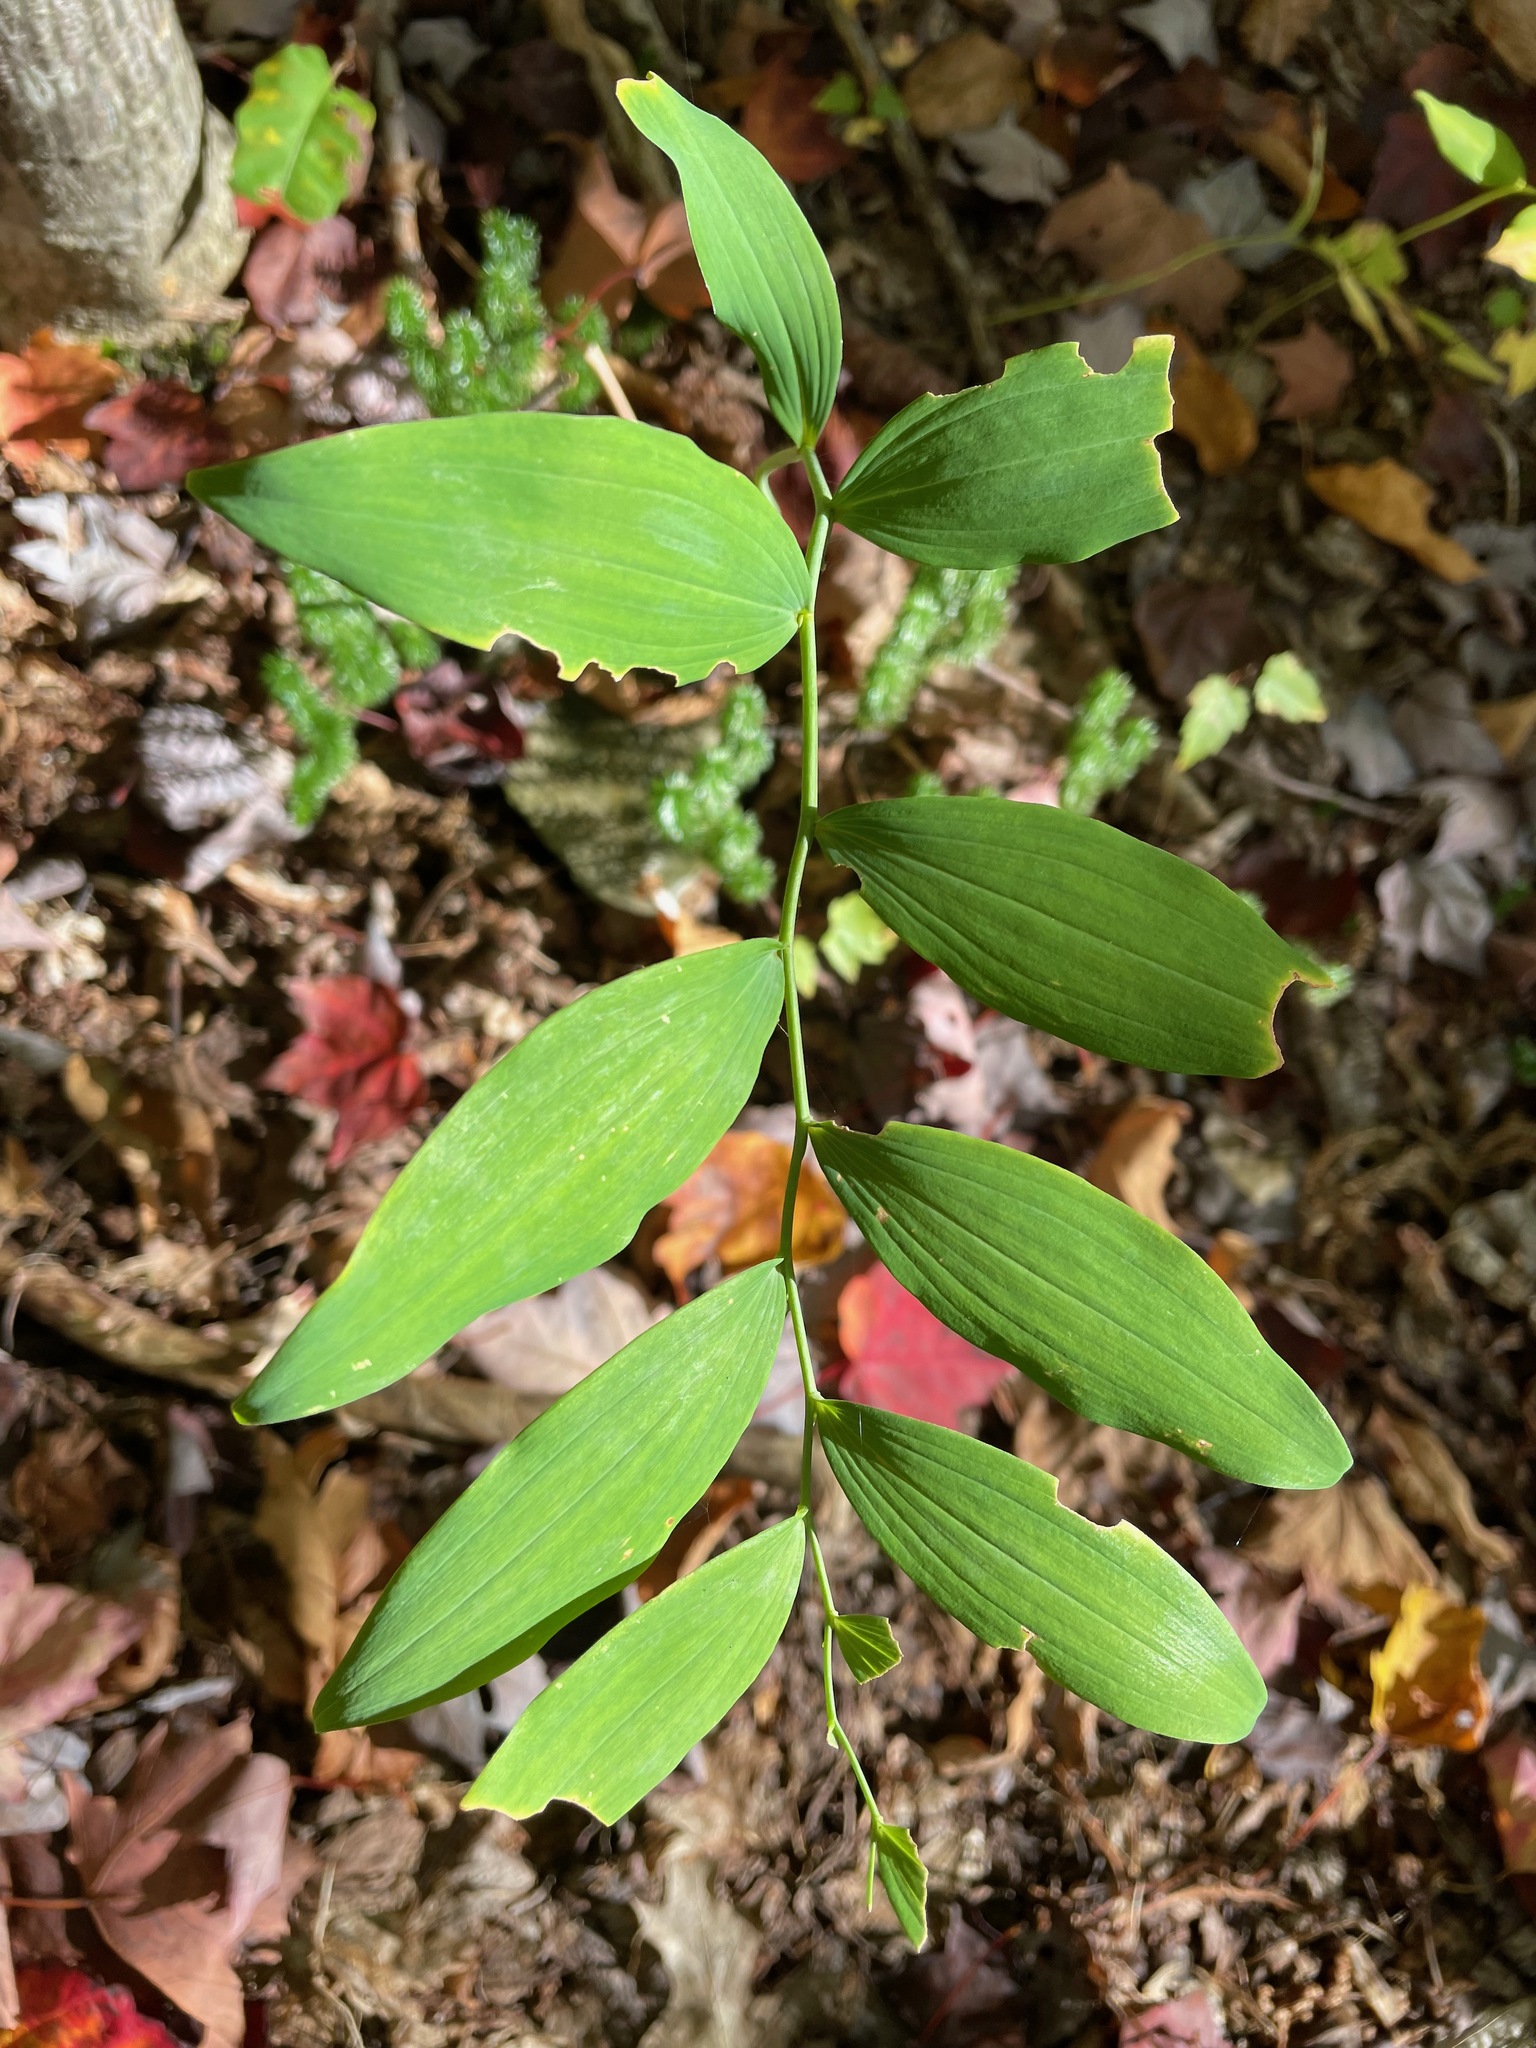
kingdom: Plantae
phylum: Tracheophyta
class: Liliopsida
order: Asparagales
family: Asparagaceae
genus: Polygonatum
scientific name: Polygonatum pubescens
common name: Downy solomon's seal
